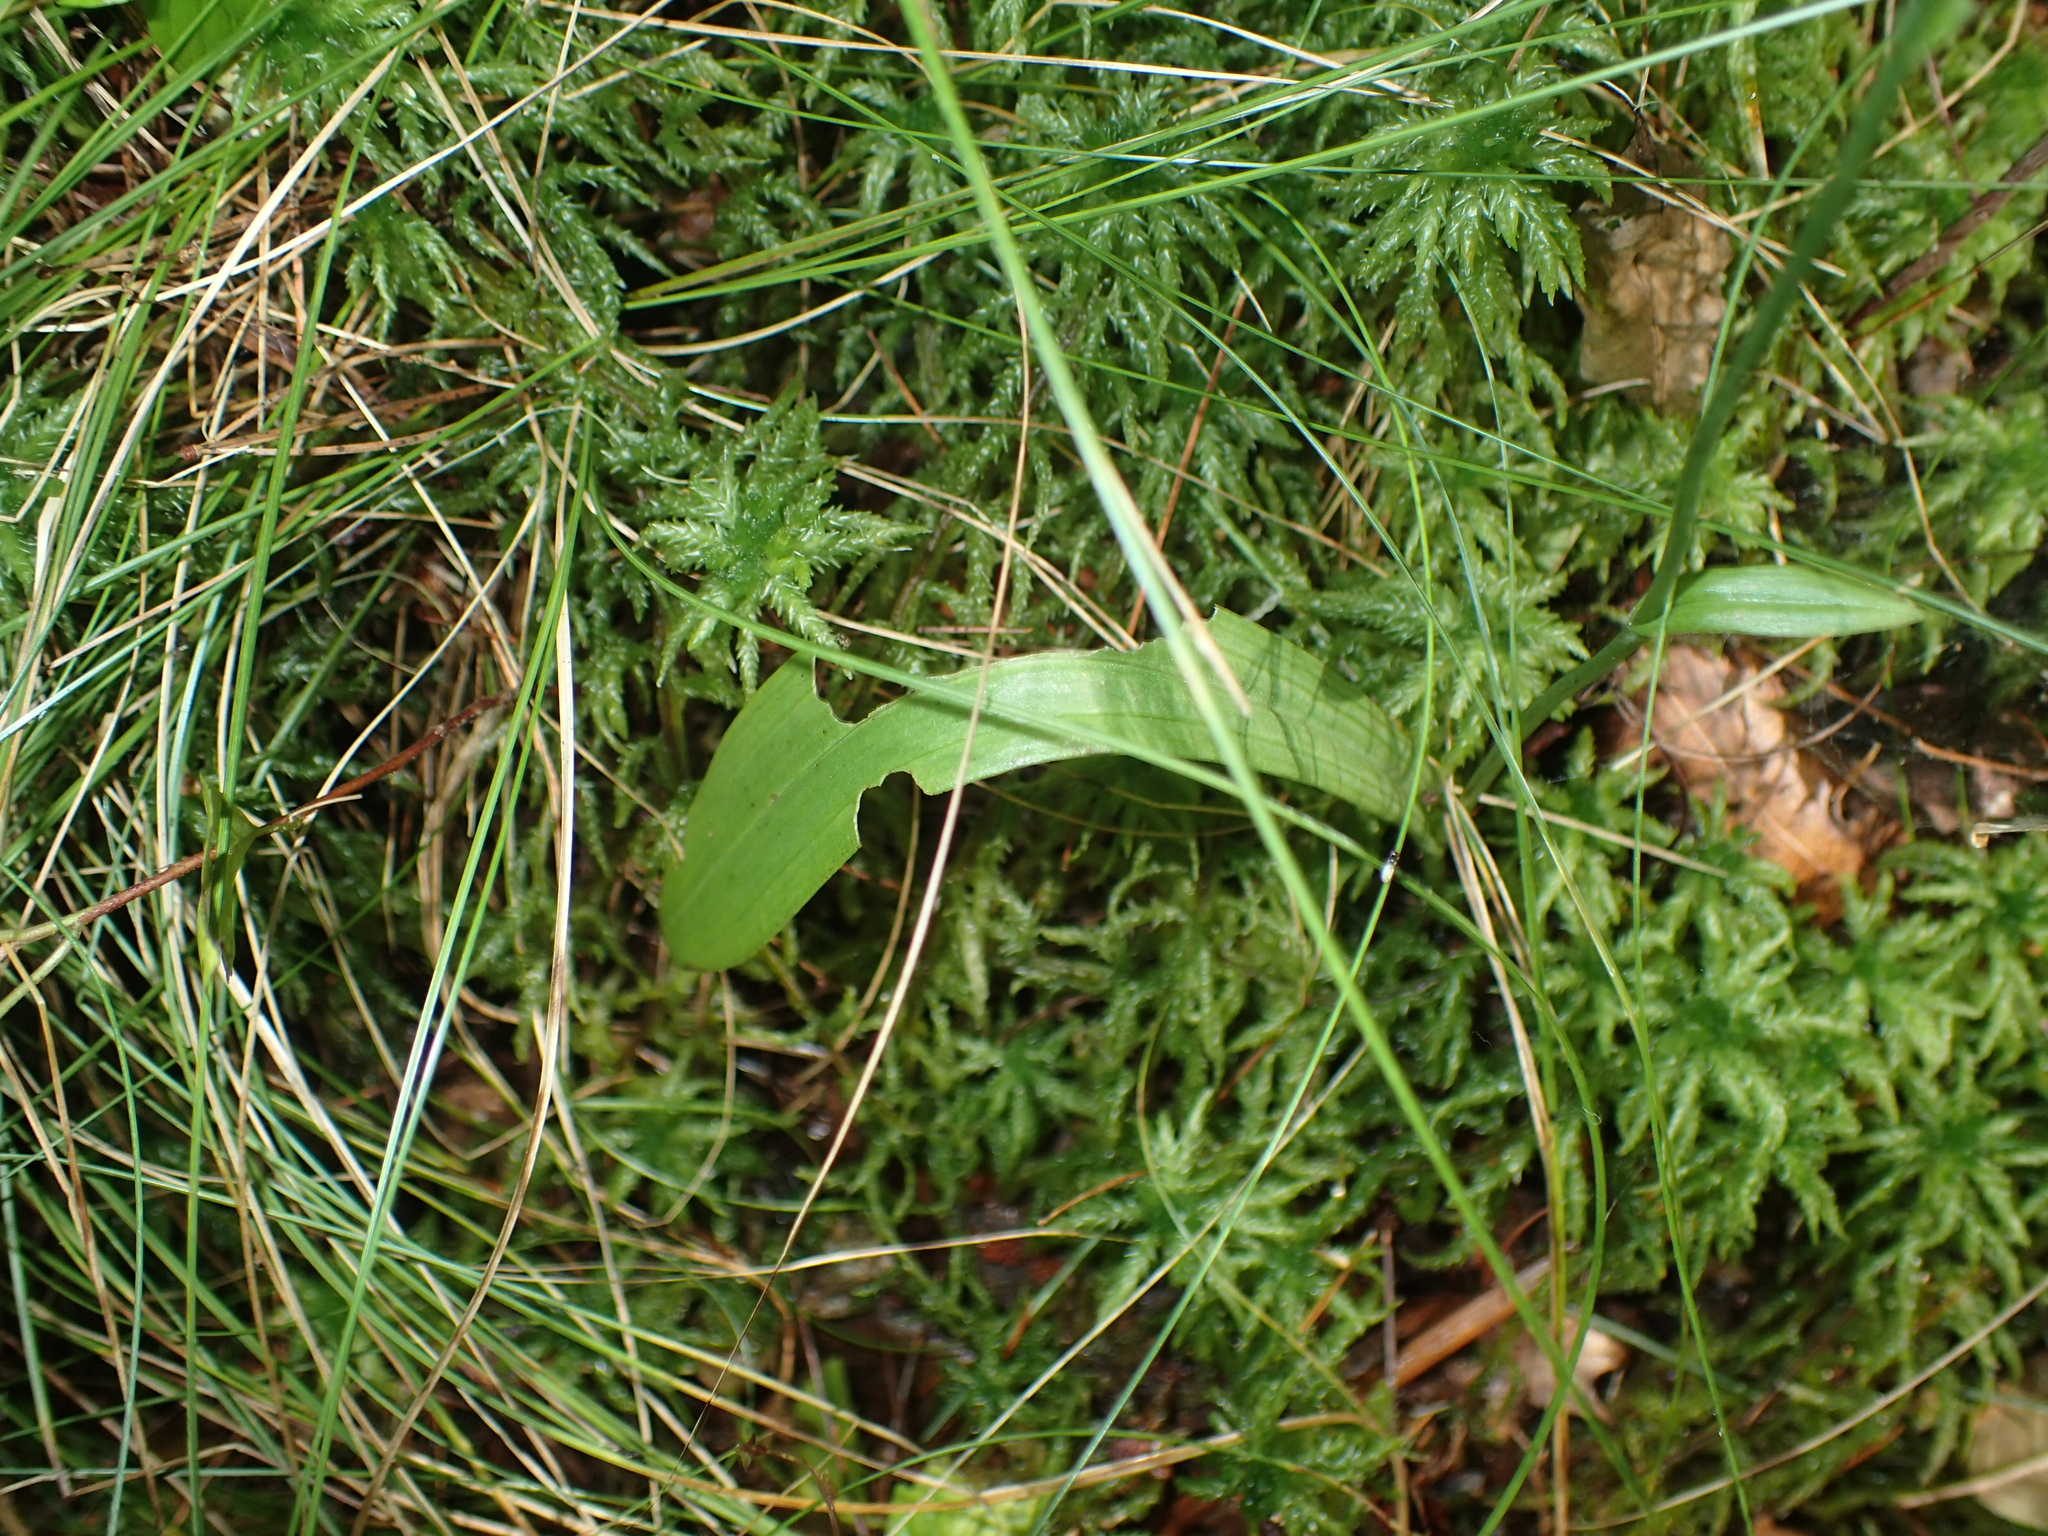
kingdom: Plantae
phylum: Tracheophyta
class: Liliopsida
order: Asparagales
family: Orchidaceae
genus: Platanthera
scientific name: Platanthera clavellata
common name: Club-spur orchid
